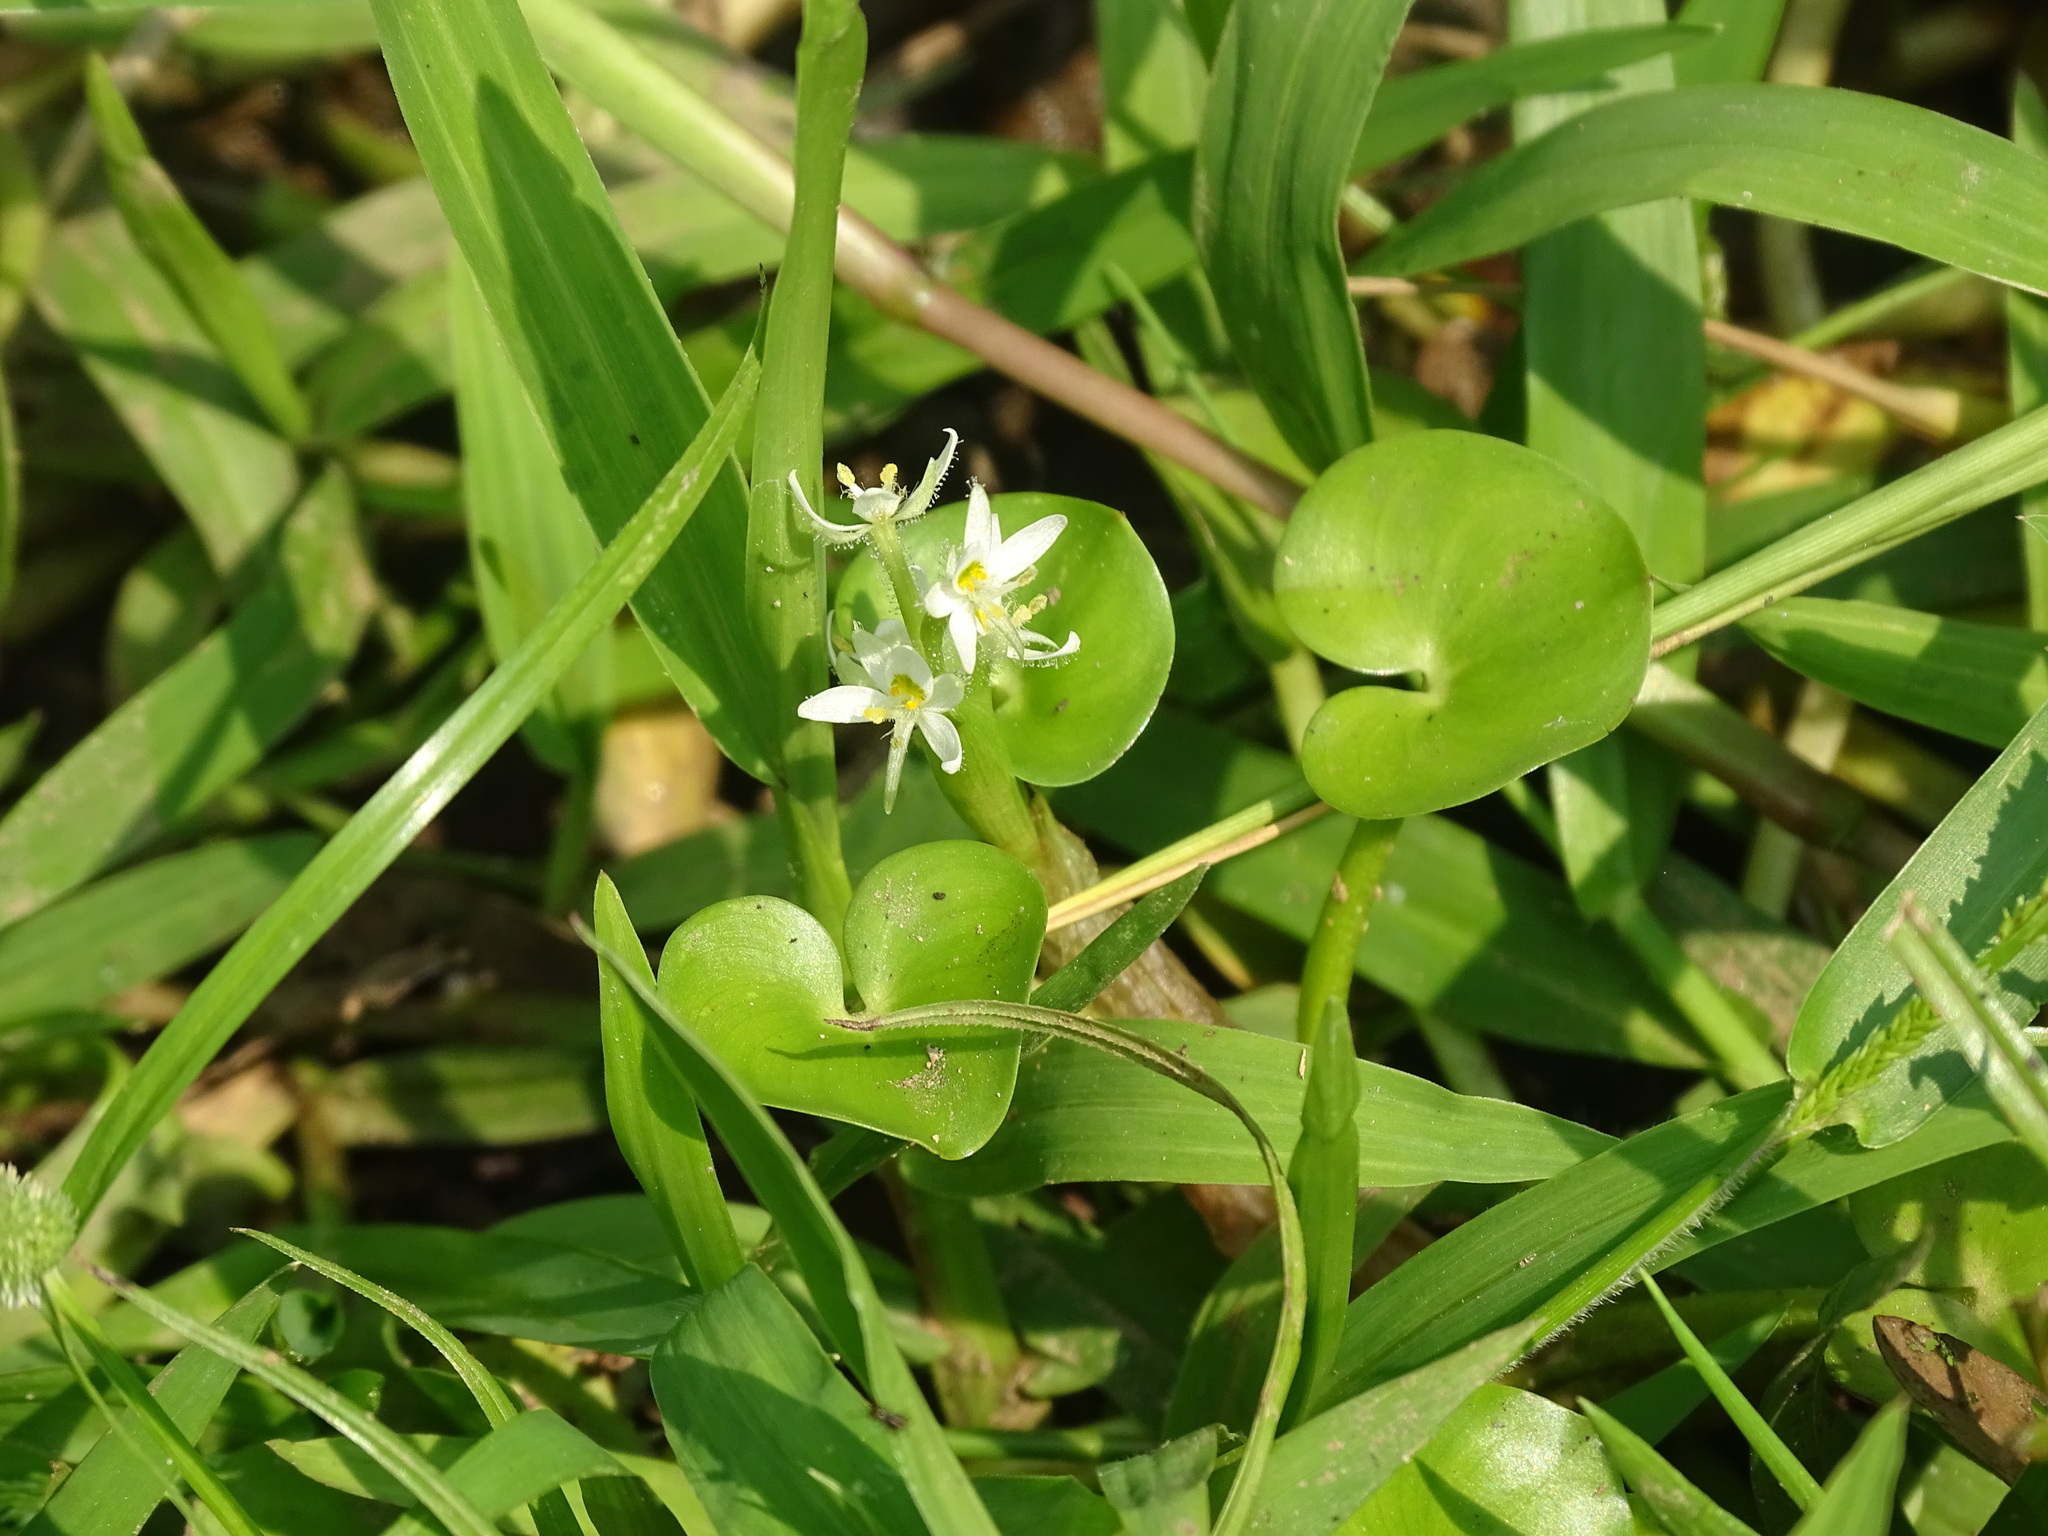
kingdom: Plantae
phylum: Tracheophyta
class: Liliopsida
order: Commelinales
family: Pontederiaceae
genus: Heteranthera
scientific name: Heteranthera reniformis
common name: Kidneyleaf mudplantain
